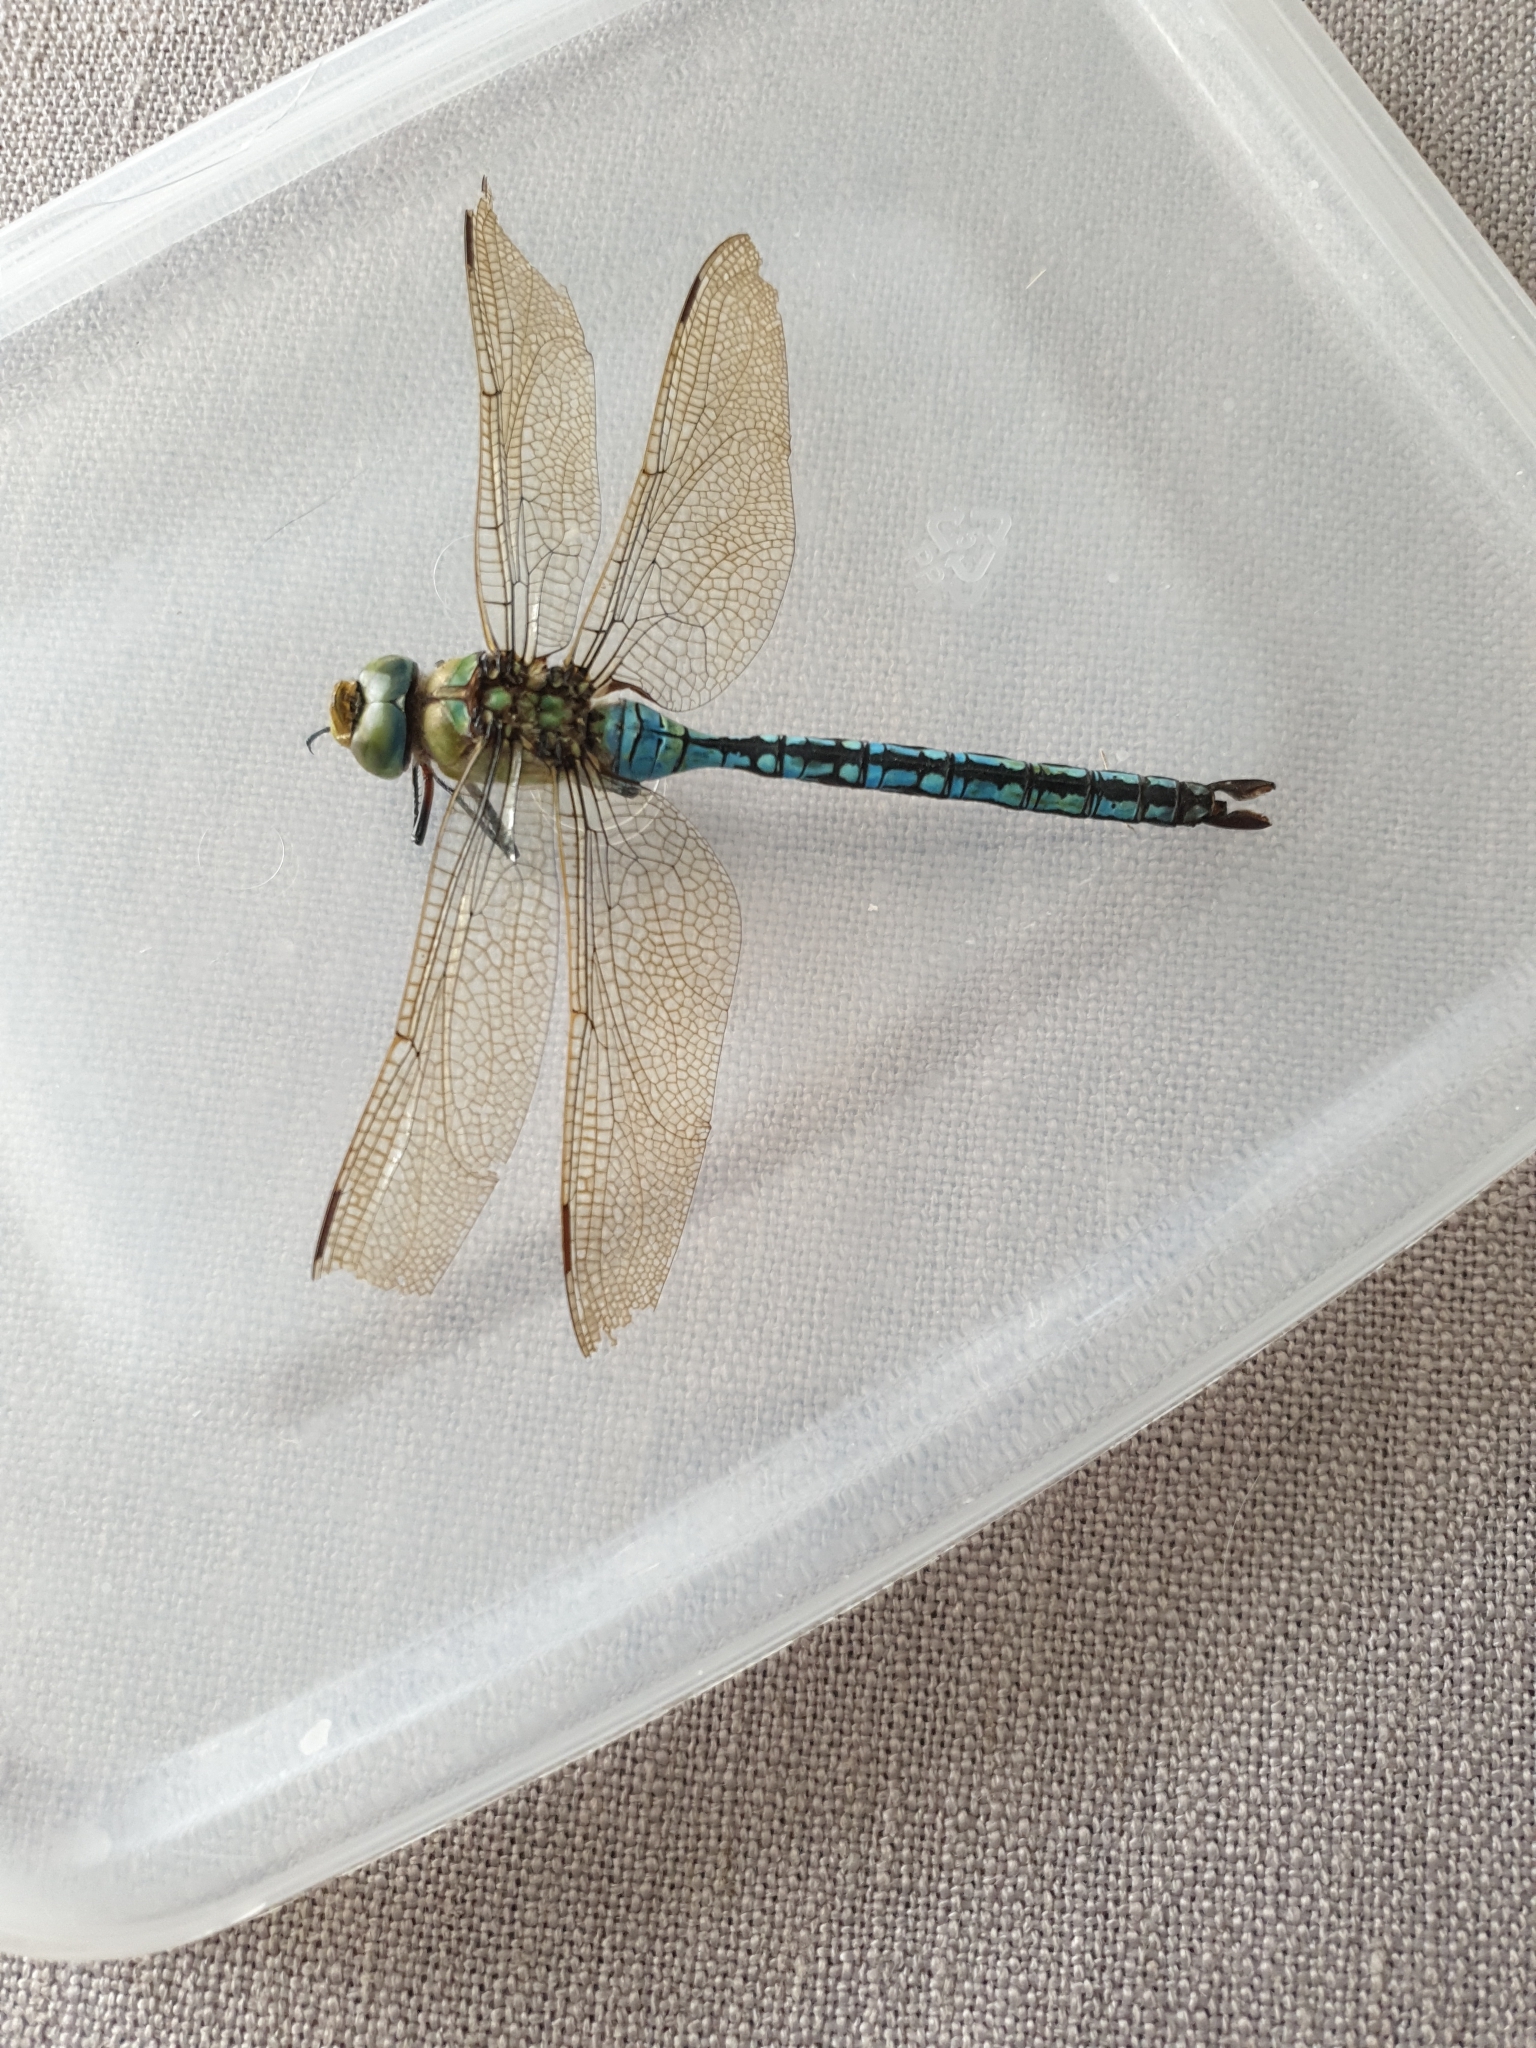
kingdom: Animalia
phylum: Arthropoda
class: Insecta
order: Odonata
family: Aeshnidae
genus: Anax
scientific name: Anax imperator
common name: Emperor dragonfly
